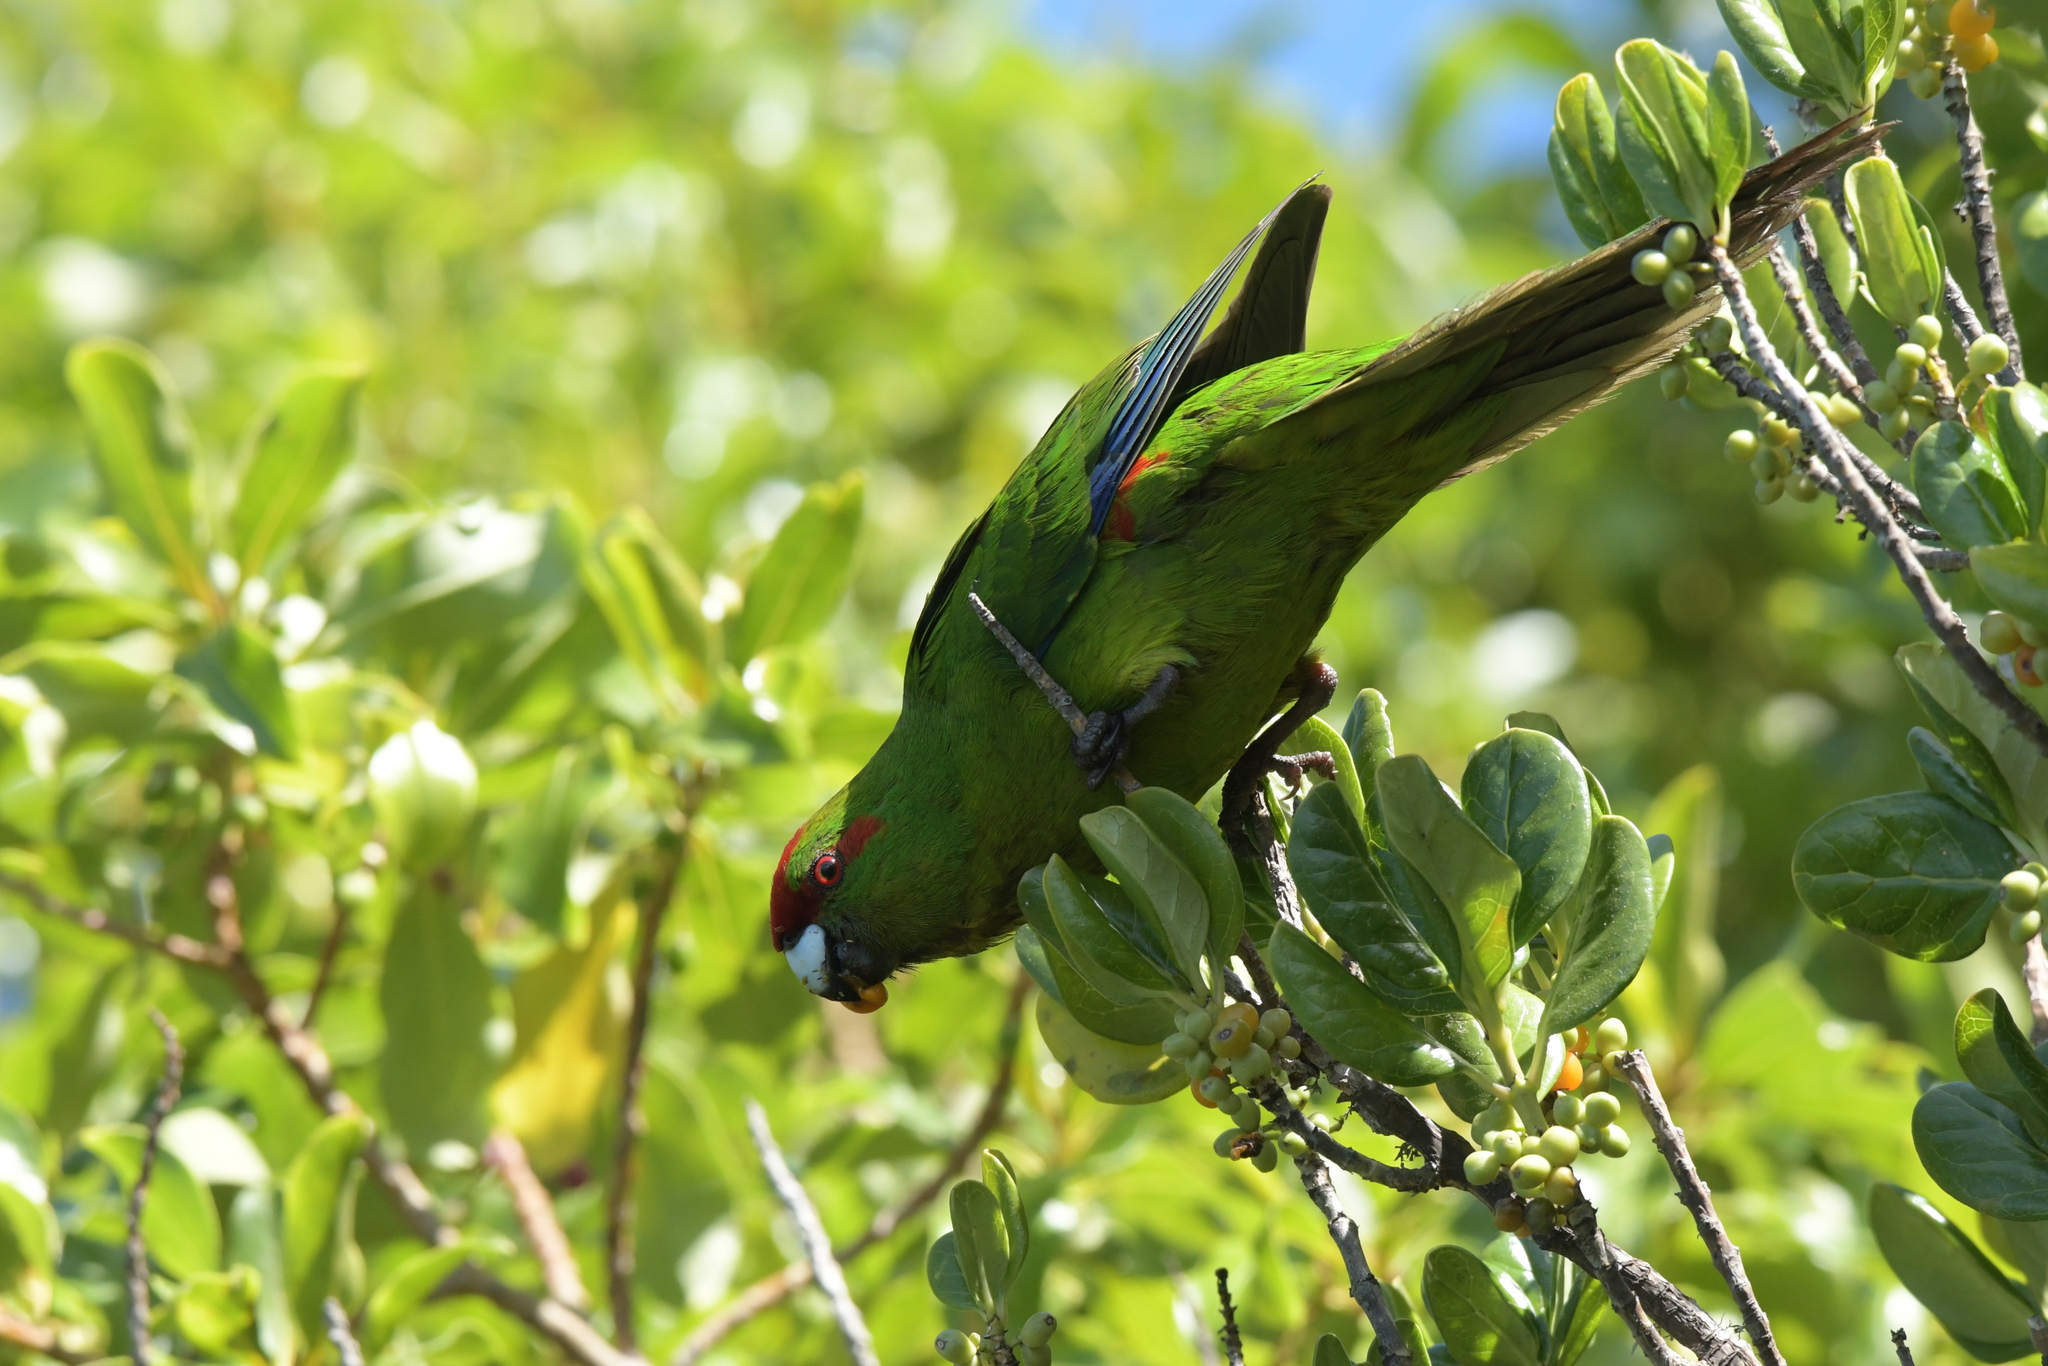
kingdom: Animalia
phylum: Chordata
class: Aves
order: Psittaciformes
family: Psittacidae
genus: Cyanoramphus
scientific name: Cyanoramphus novaezelandiae
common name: Red-fronted parakeet
